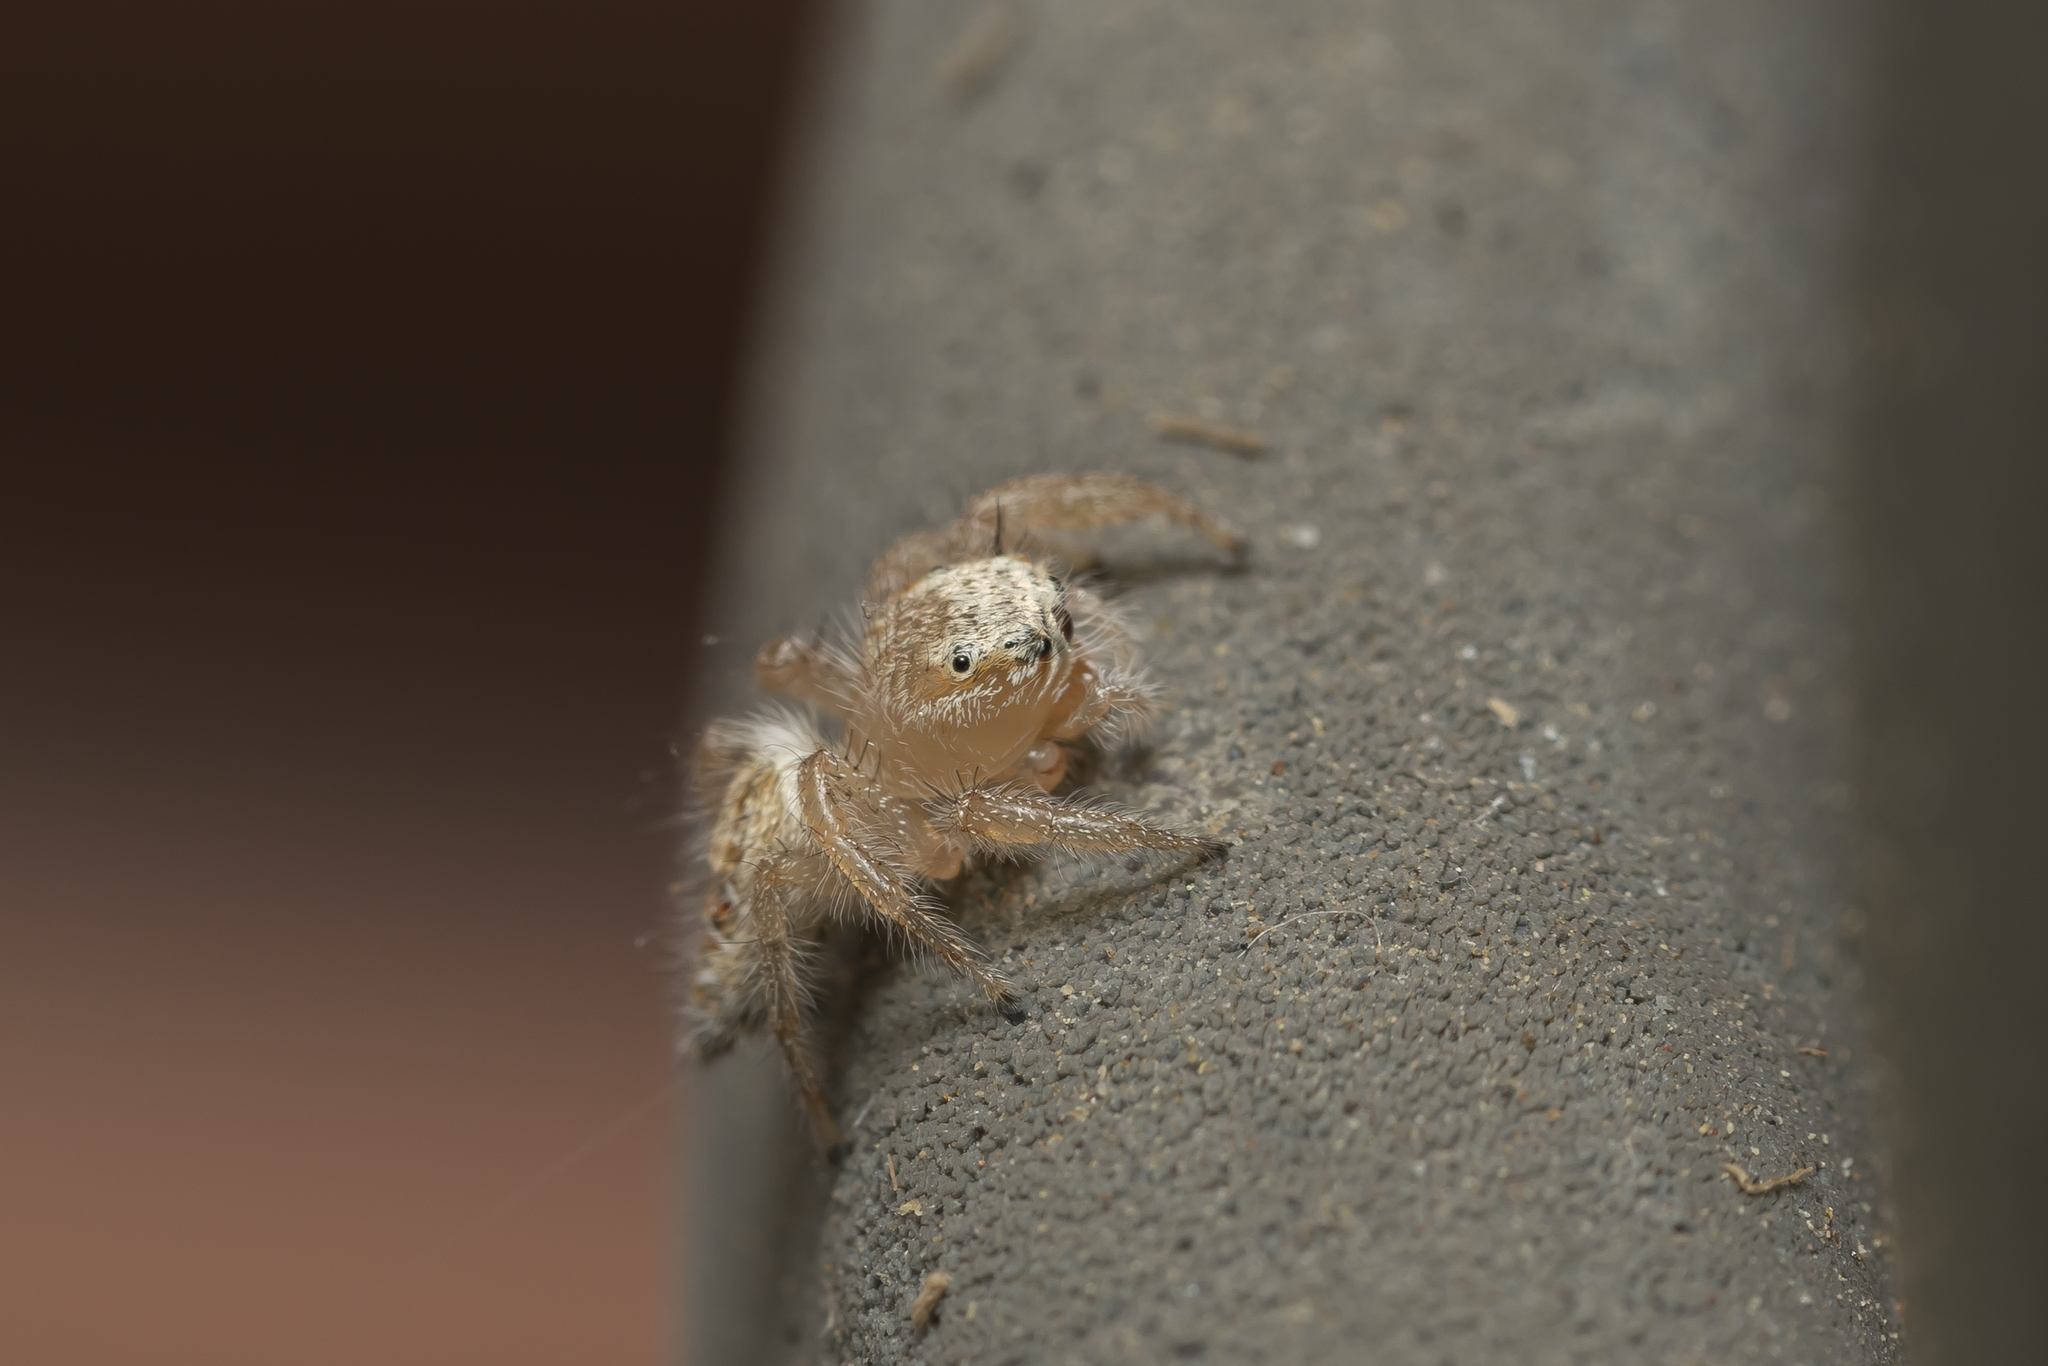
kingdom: Animalia
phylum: Arthropoda
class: Arachnida
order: Araneae
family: Salticidae
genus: Thyene
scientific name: Thyene imperialis
